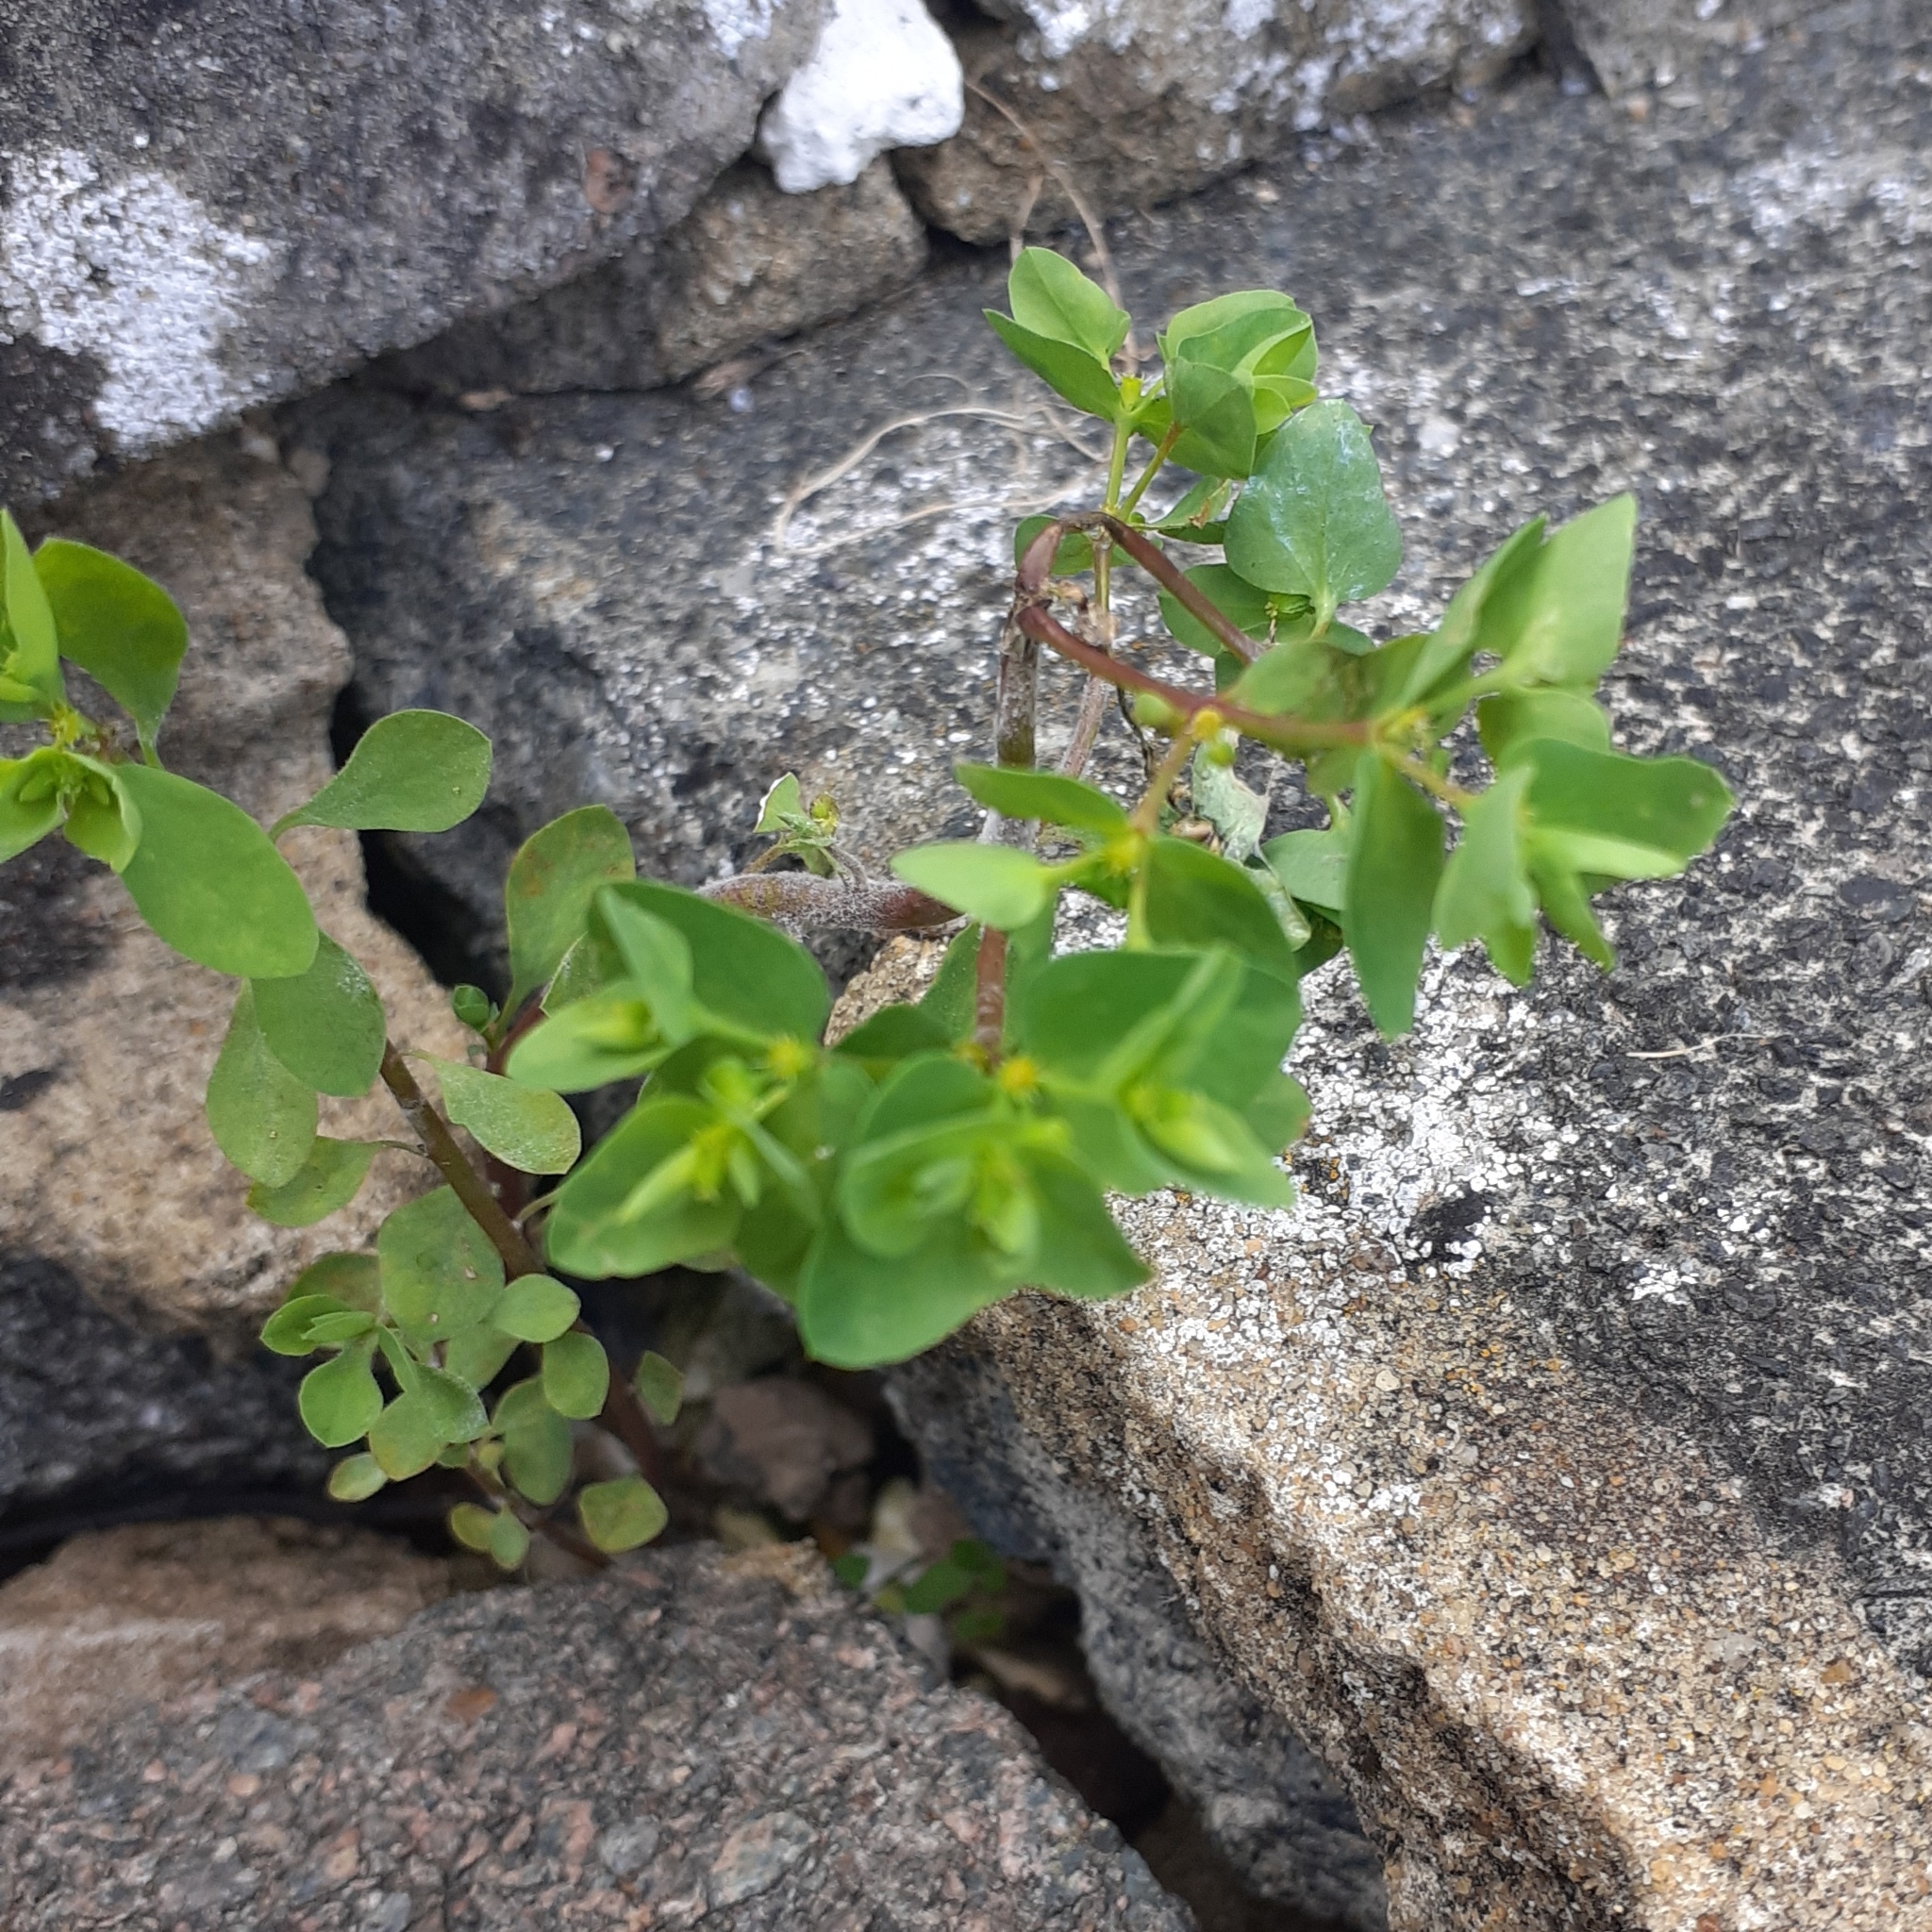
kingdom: Plantae
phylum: Tracheophyta
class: Magnoliopsida
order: Malpighiales
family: Euphorbiaceae
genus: Euphorbia
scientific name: Euphorbia peplus
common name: Petty spurge
